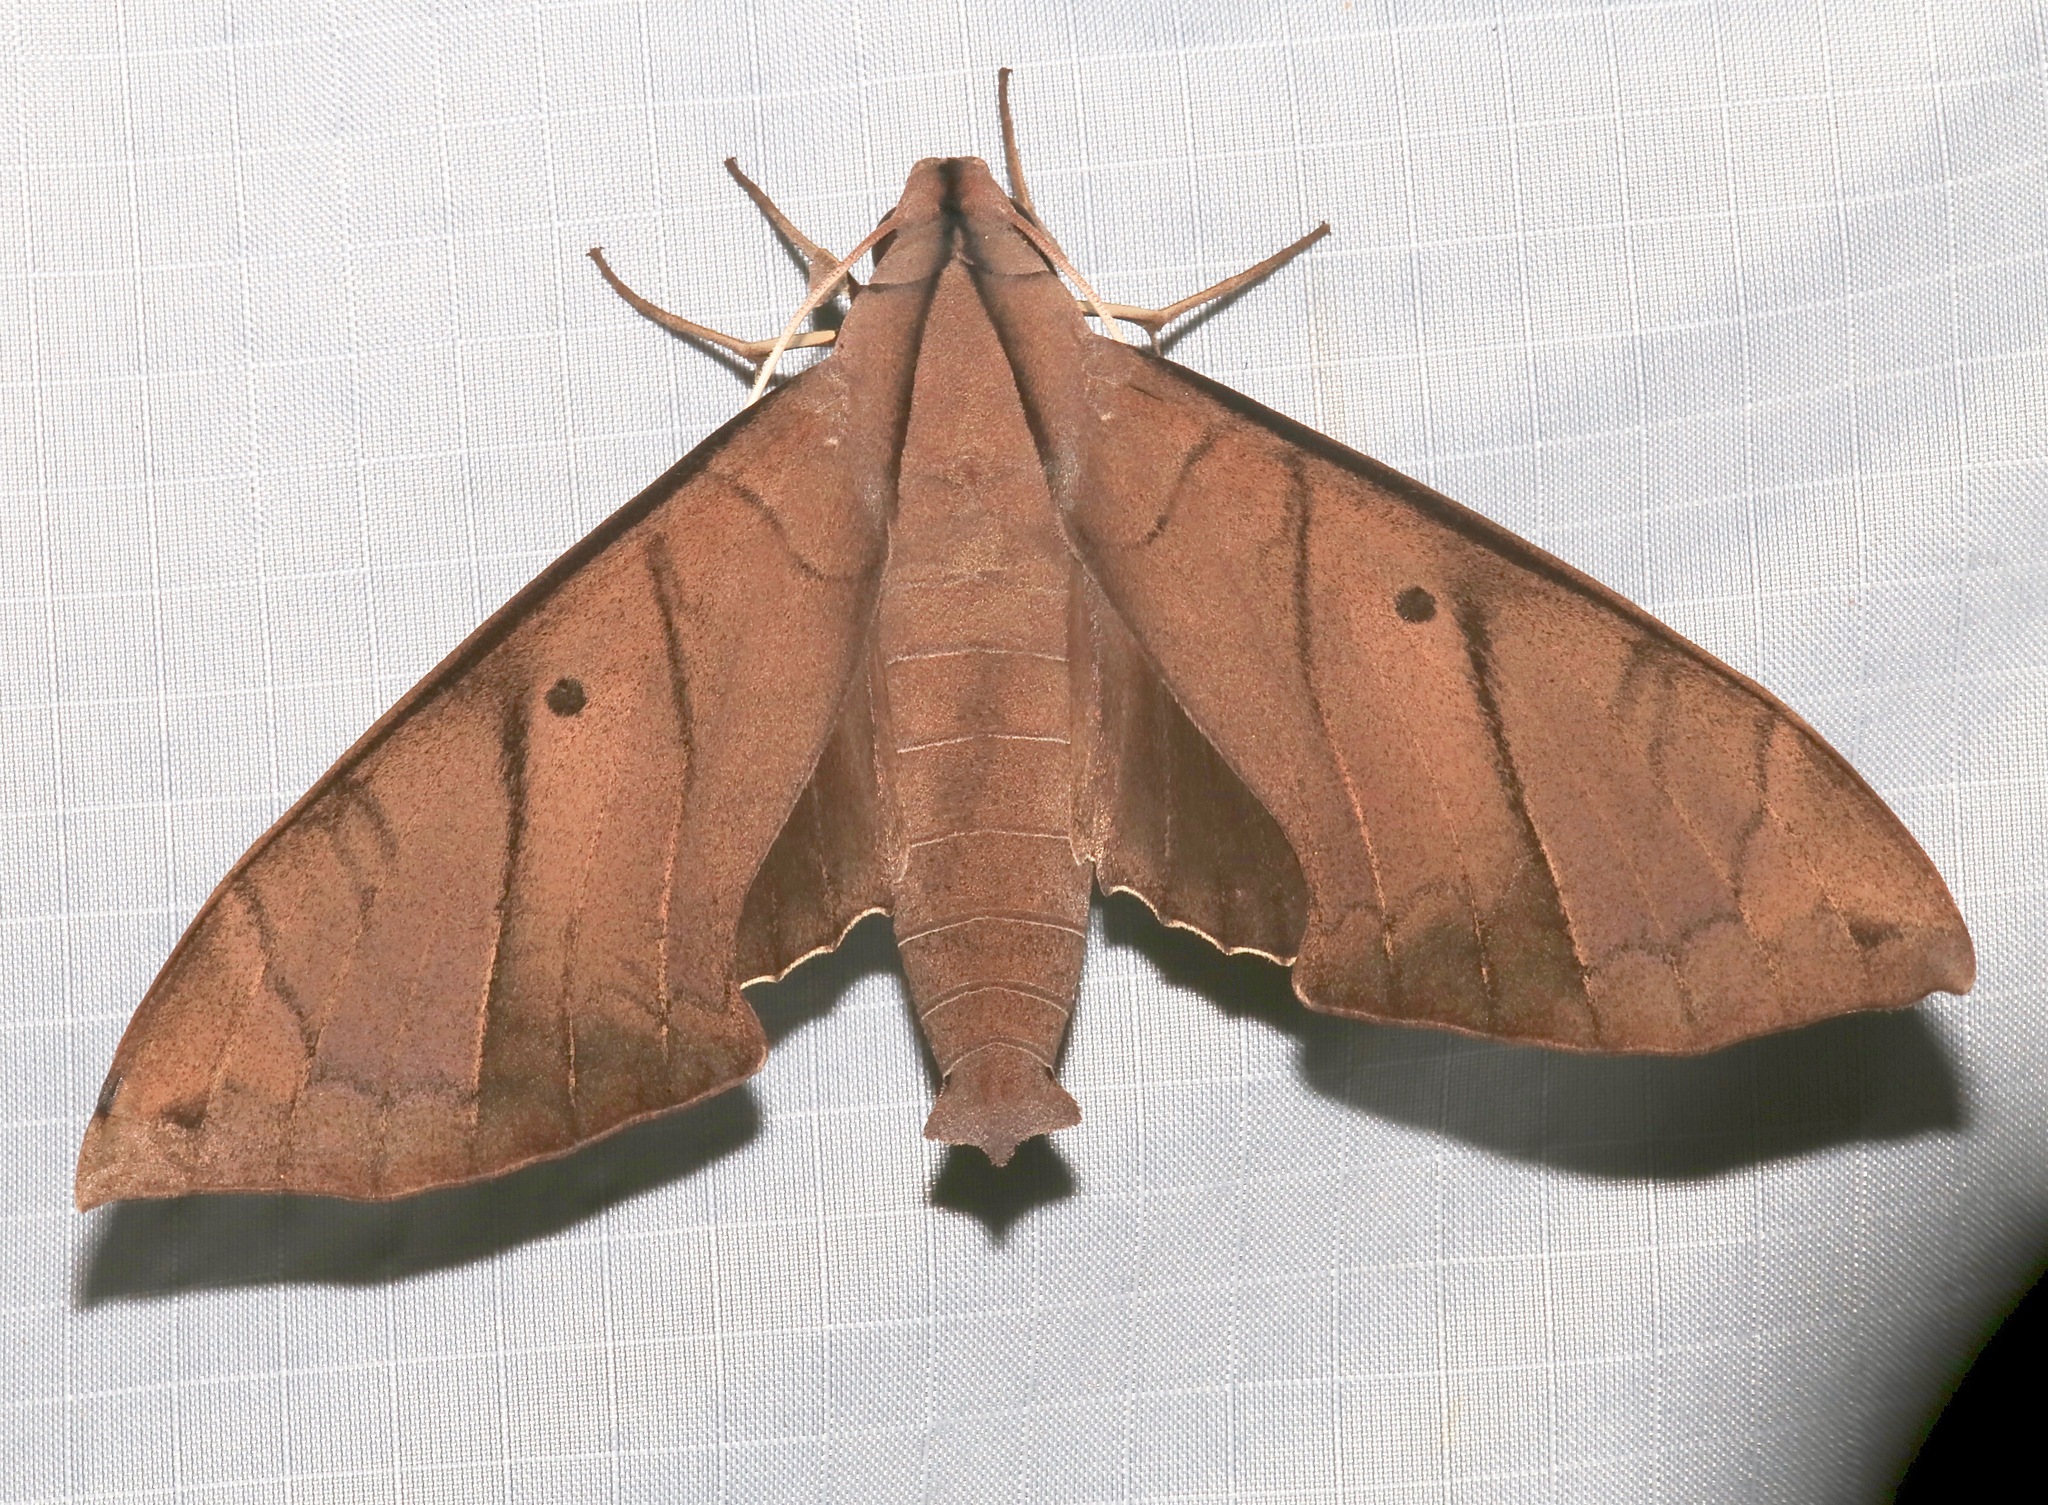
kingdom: Animalia
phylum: Arthropoda
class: Insecta
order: Lepidoptera
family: Sphingidae
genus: Pachylia
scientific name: Pachylia darceta
